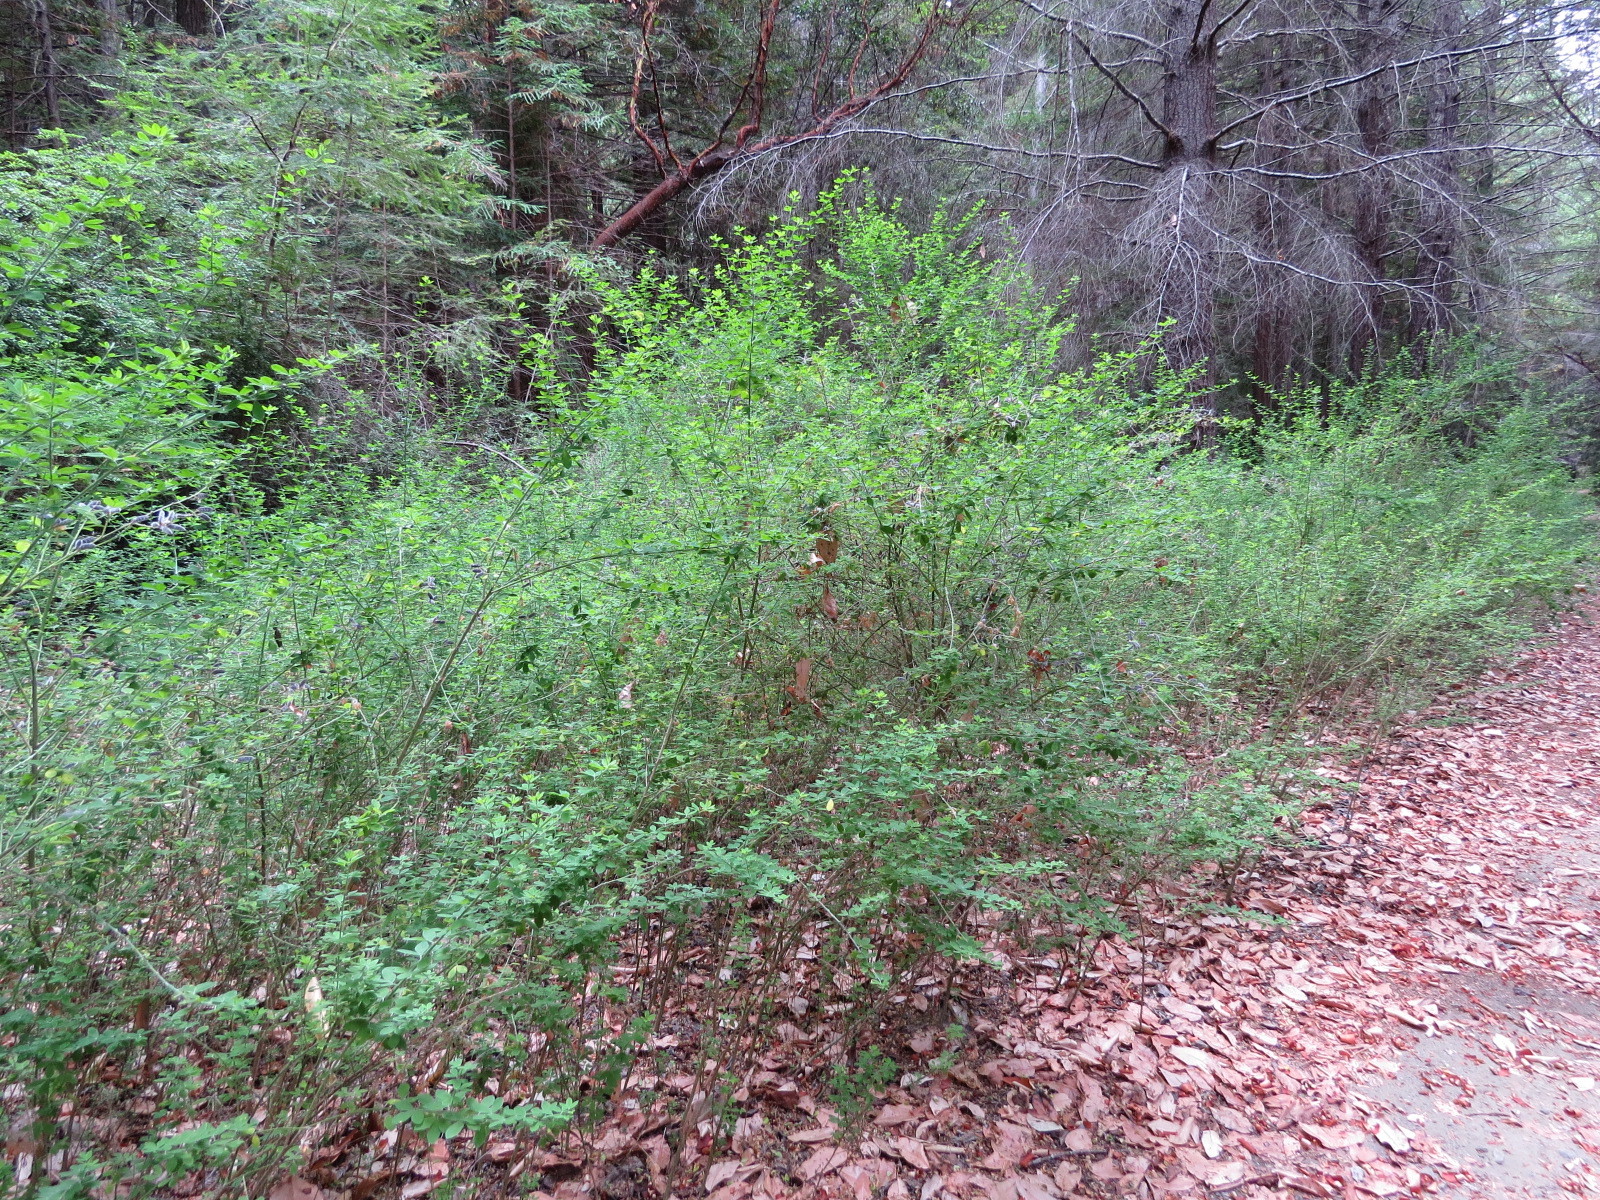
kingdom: Plantae
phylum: Tracheophyta
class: Magnoliopsida
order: Fabales
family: Fabaceae
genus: Genista
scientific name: Genista monspessulana
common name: Montpellier broom
